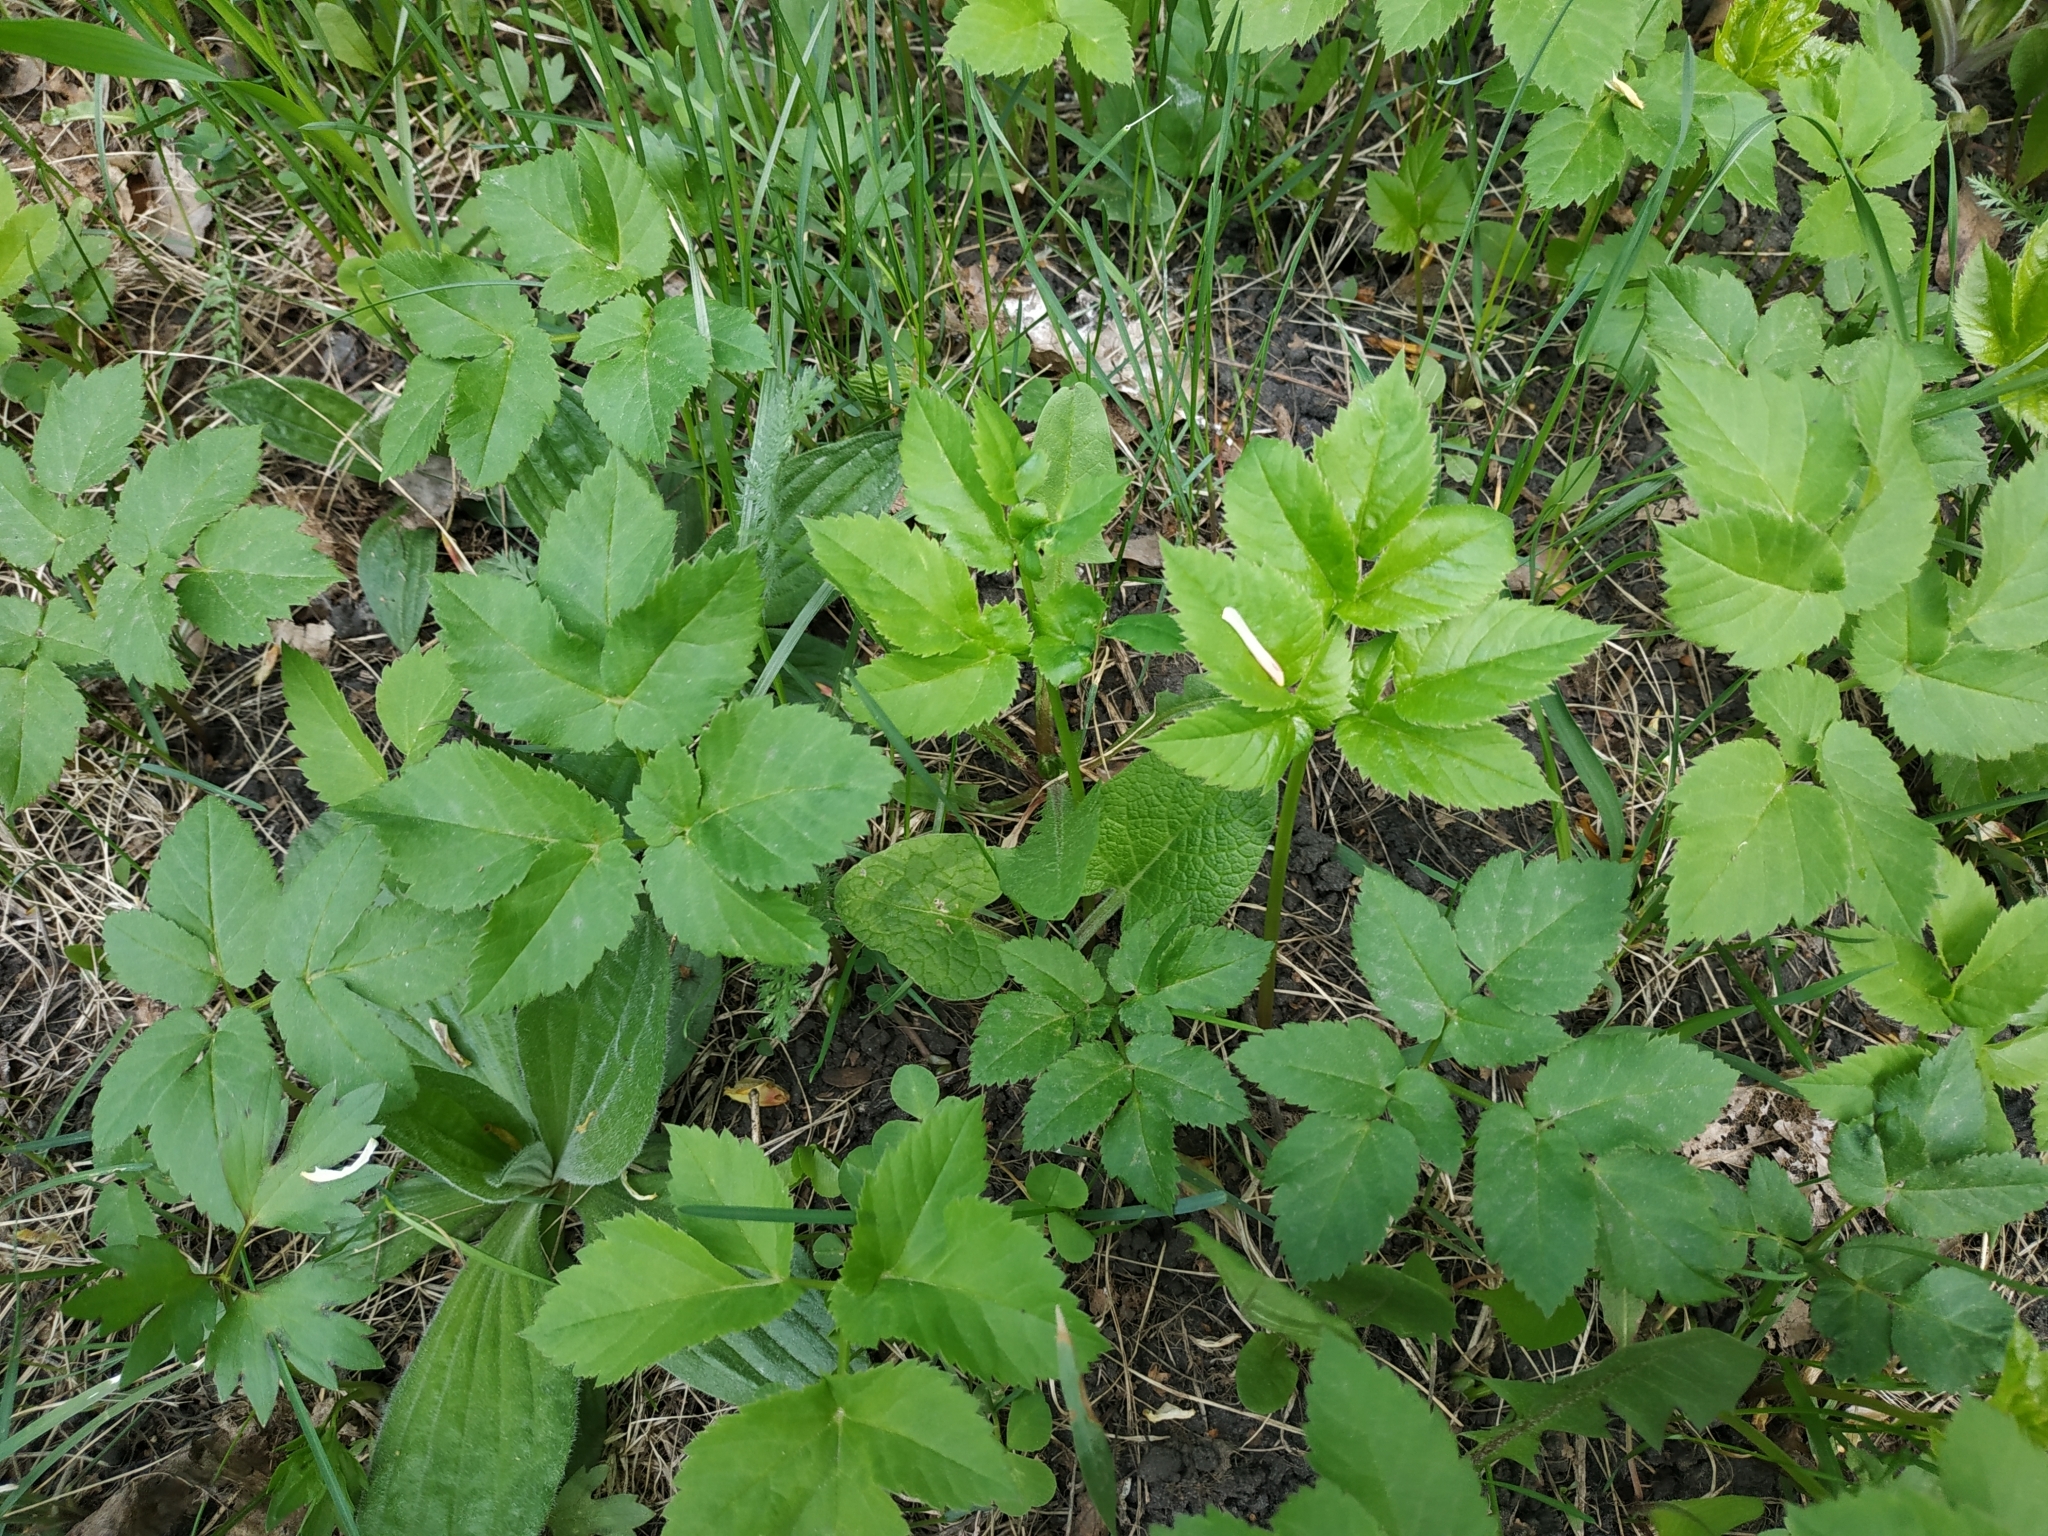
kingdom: Plantae
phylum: Tracheophyta
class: Magnoliopsida
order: Apiales
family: Apiaceae
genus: Aegopodium
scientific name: Aegopodium podagraria
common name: Ground-elder
